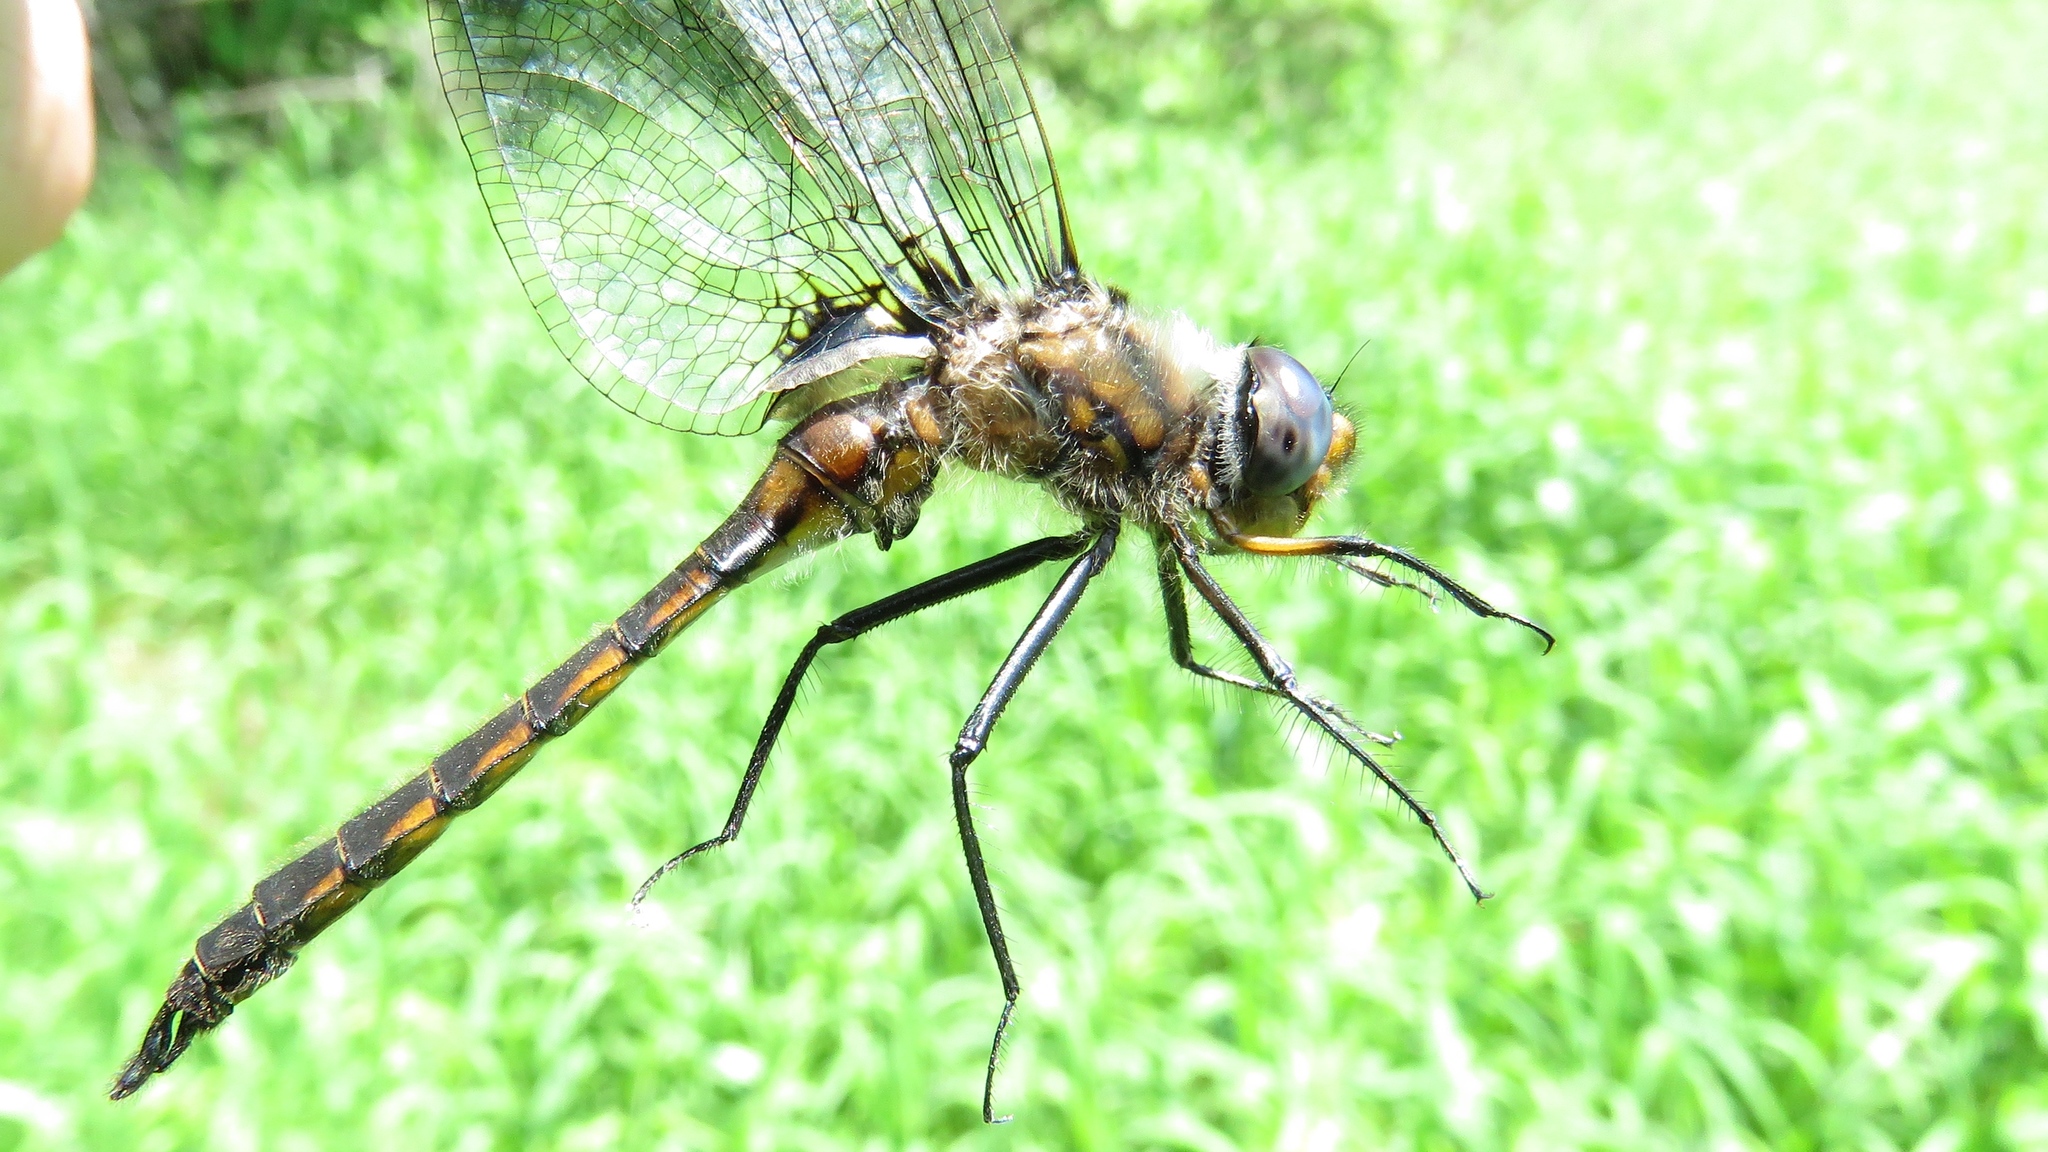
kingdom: Animalia
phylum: Arthropoda
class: Insecta
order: Odonata
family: Corduliidae
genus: Epitheca
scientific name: Epitheca cynosura
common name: Common baskettail
